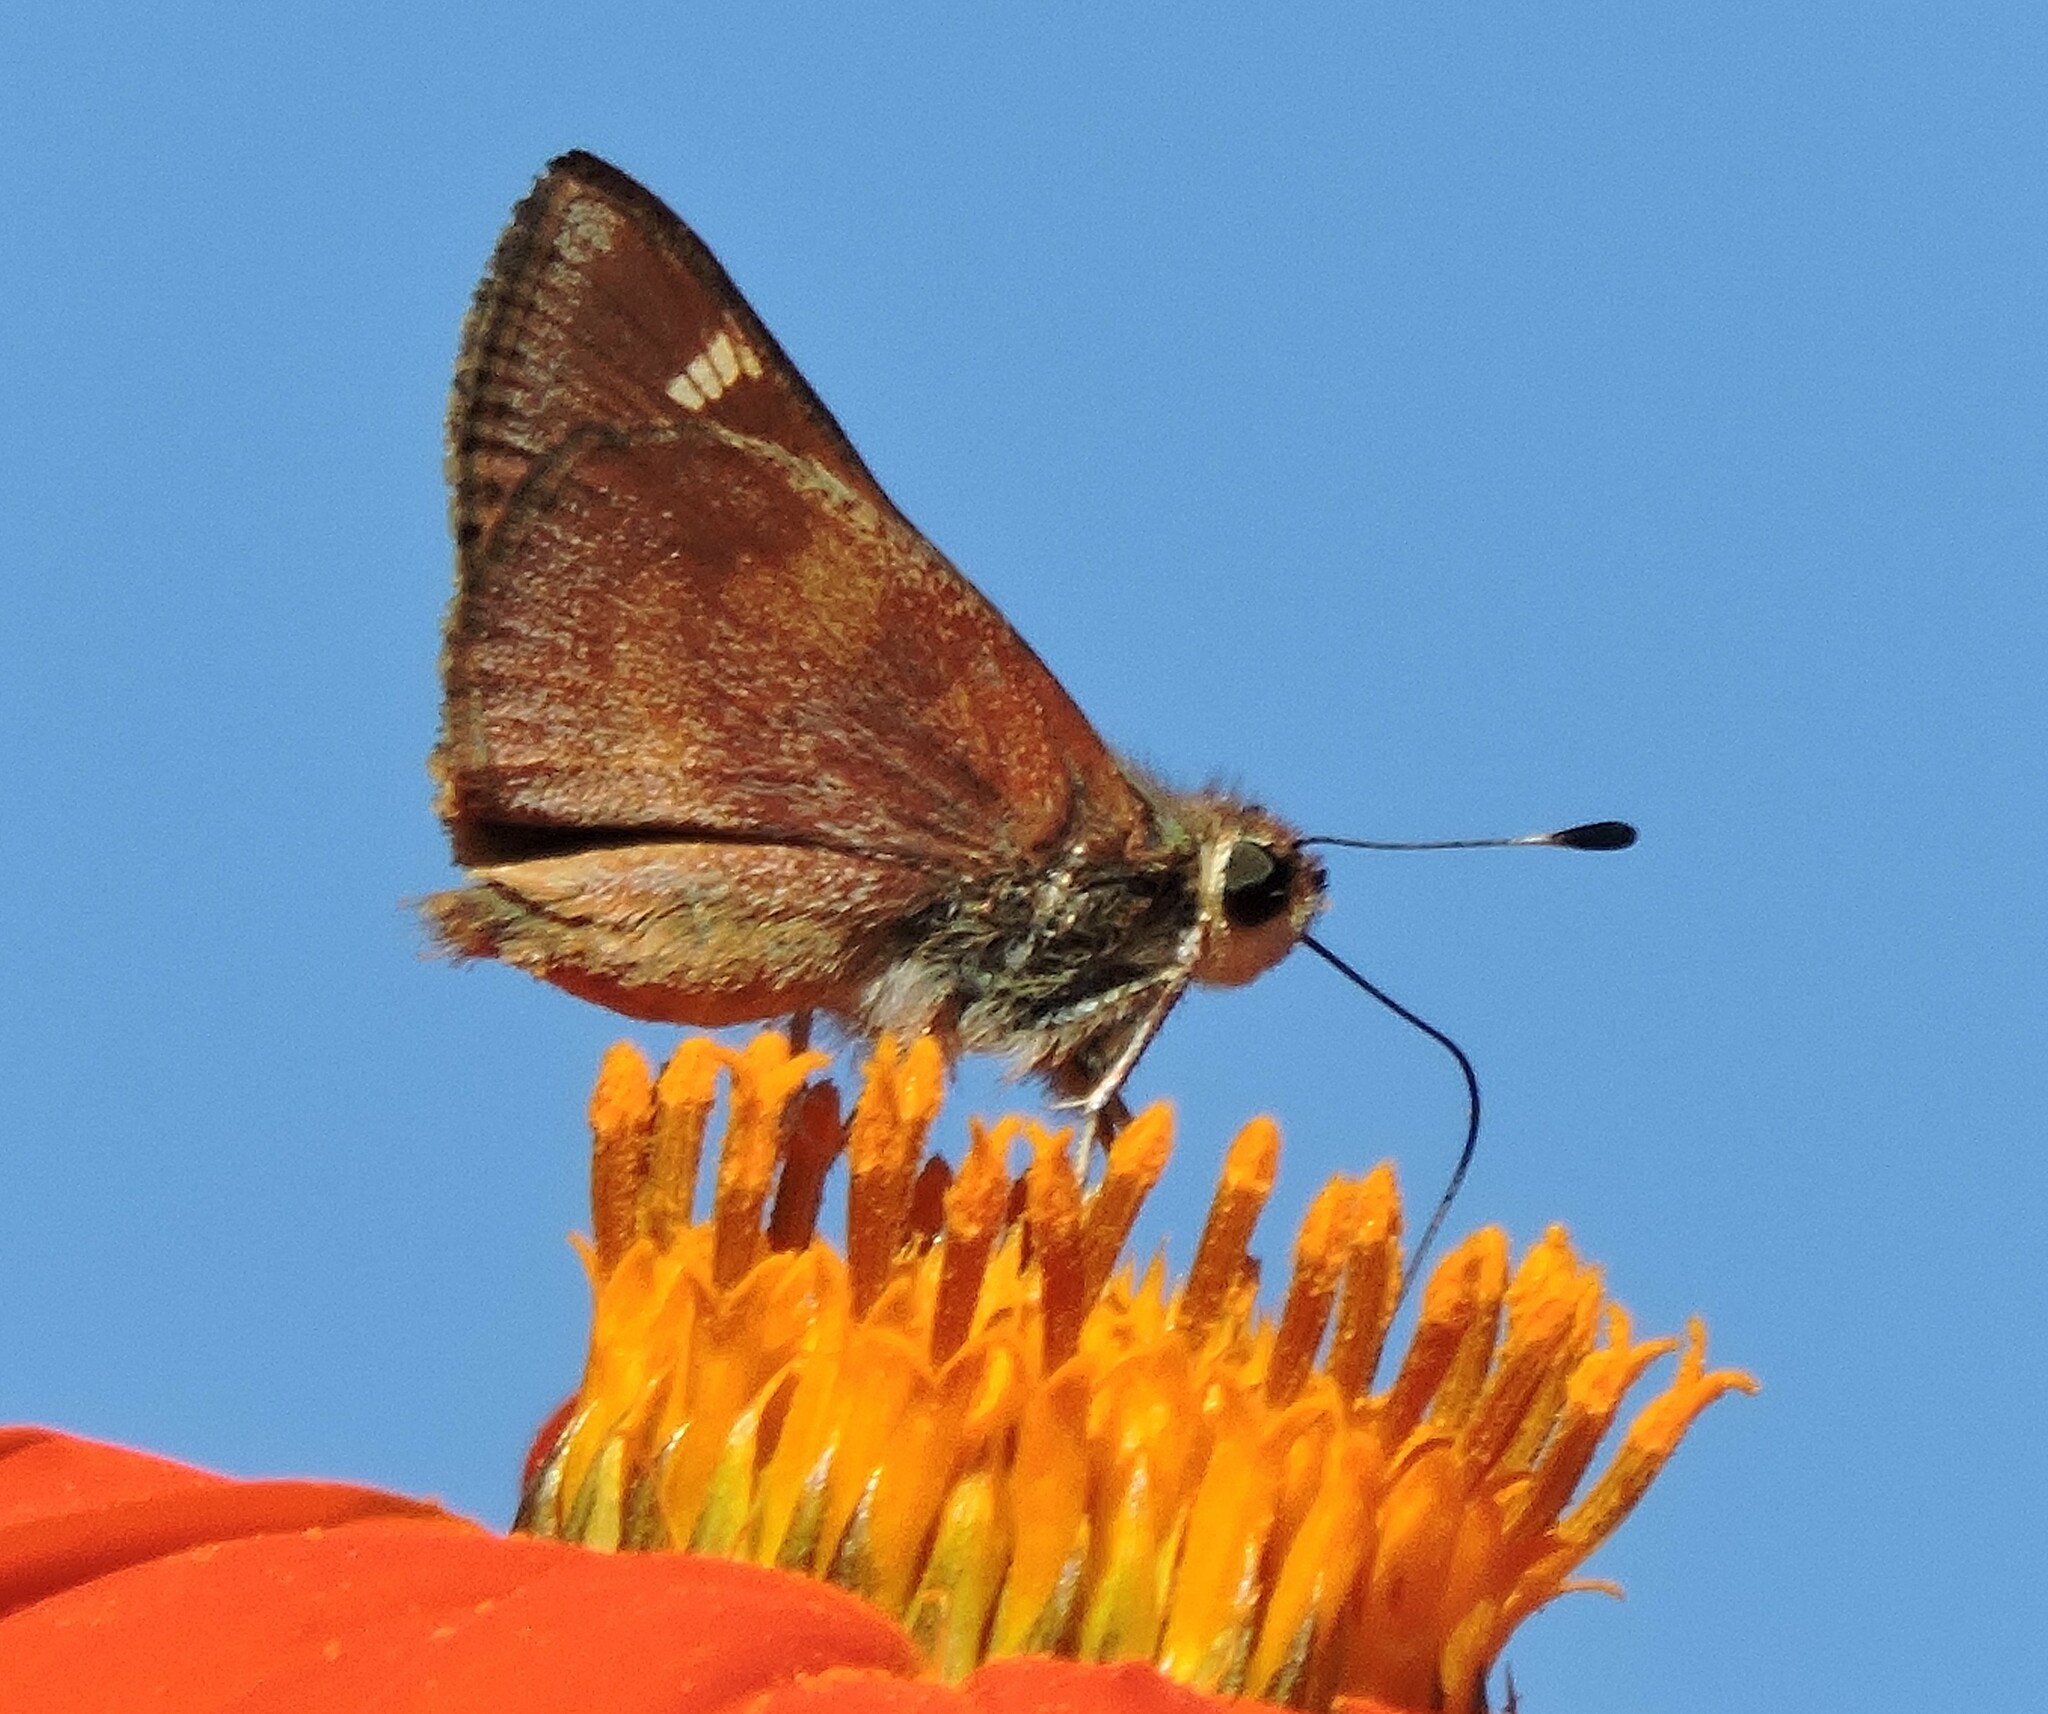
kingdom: Animalia
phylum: Arthropoda
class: Insecta
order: Lepidoptera
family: Hesperiidae
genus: Lon
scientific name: Lon melane
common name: Umber skipper
